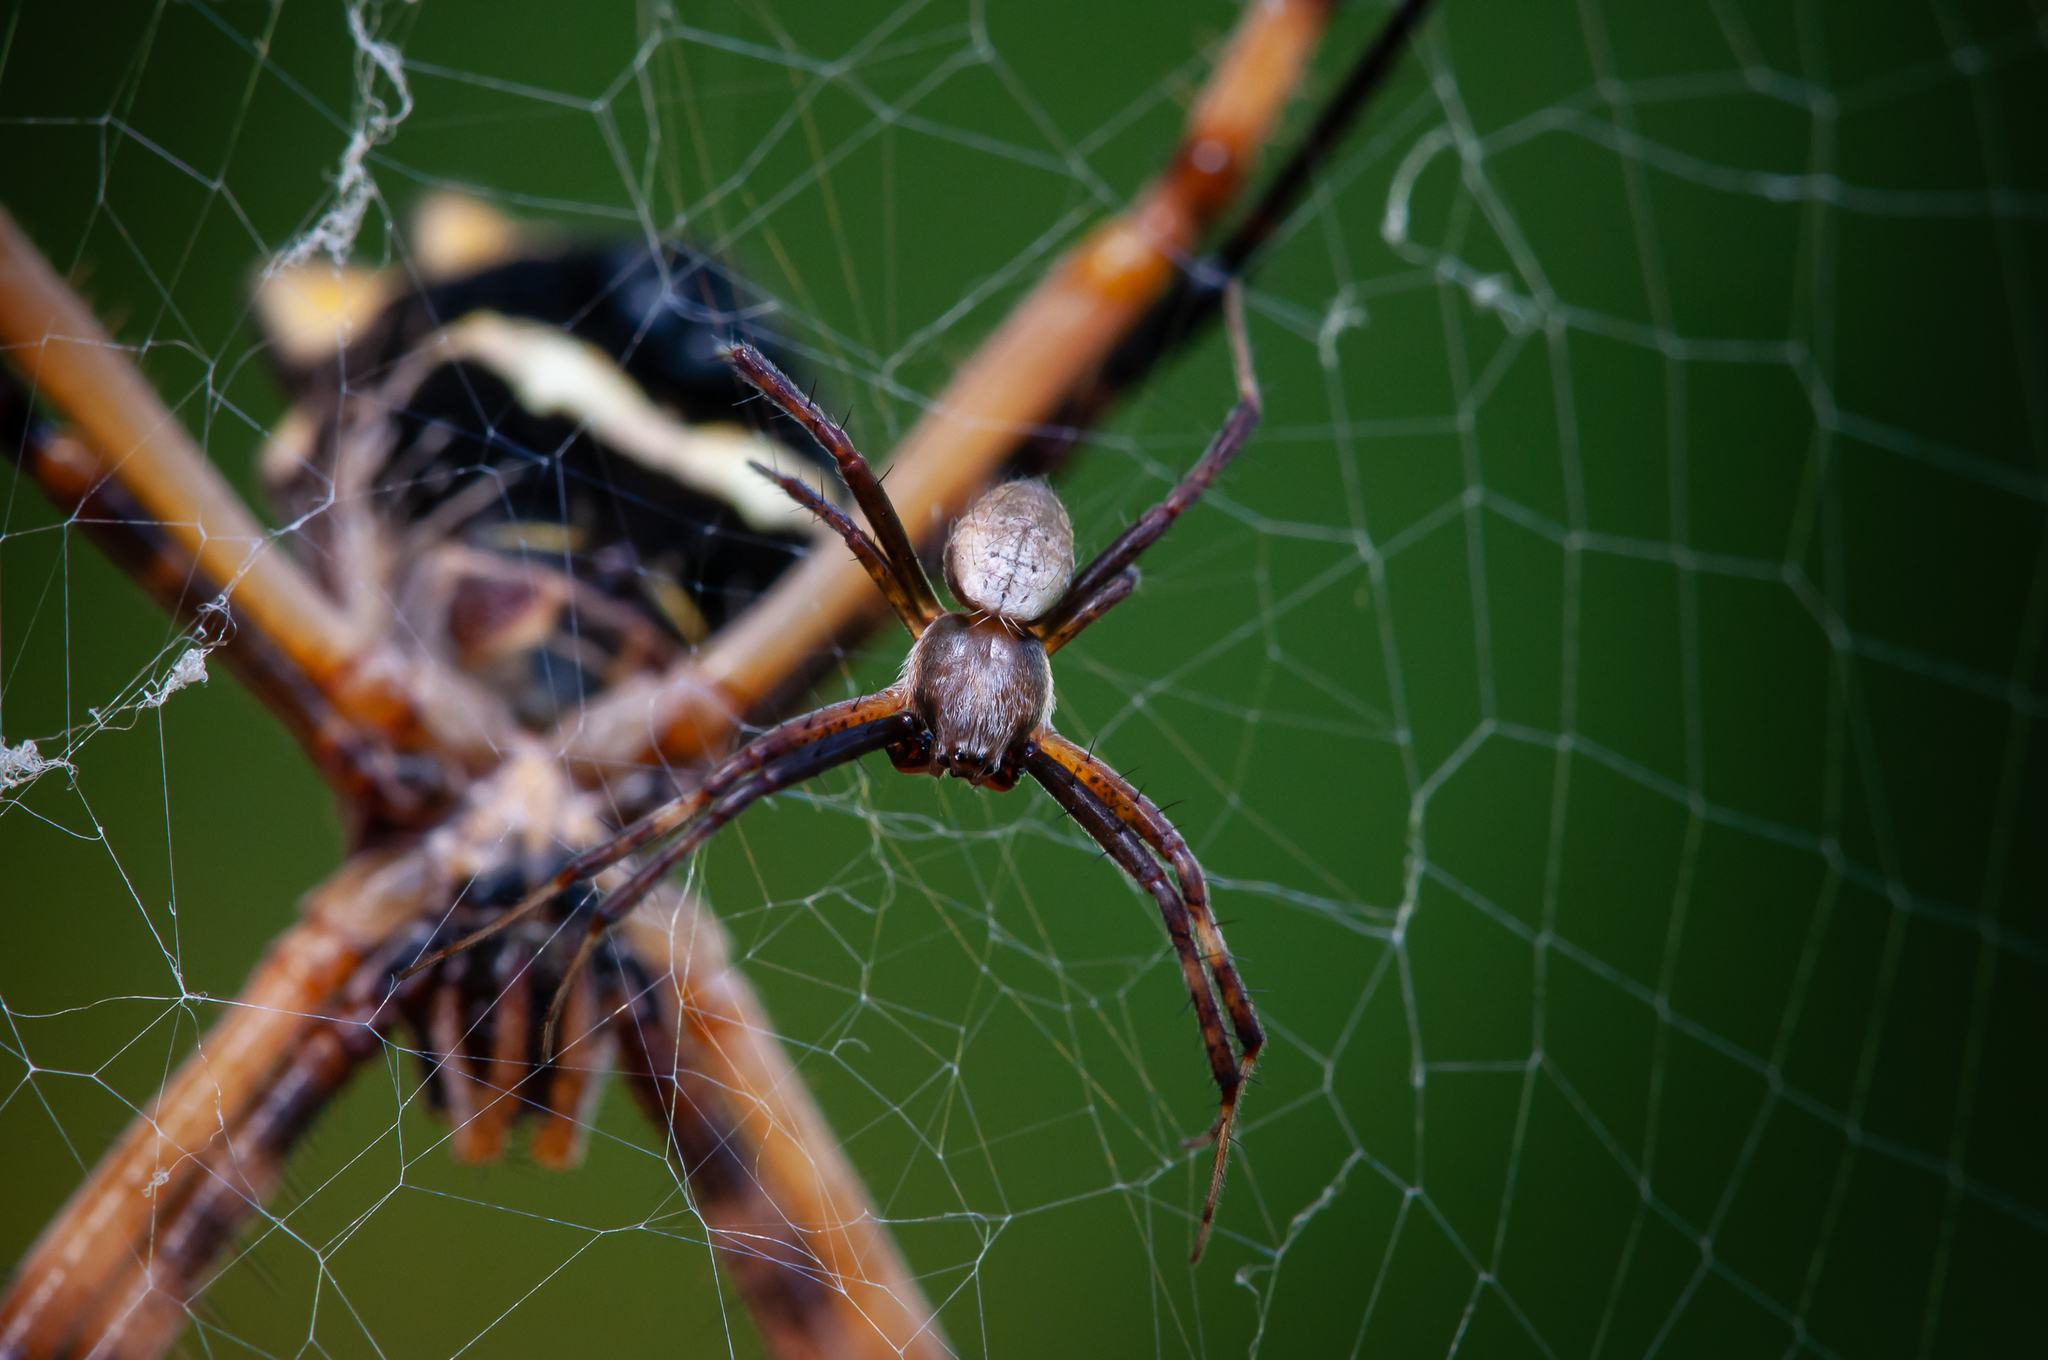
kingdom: Animalia
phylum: Arthropoda
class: Arachnida
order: Araneae
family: Araneidae
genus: Argiope
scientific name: Argiope argentata
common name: Orb weavers
